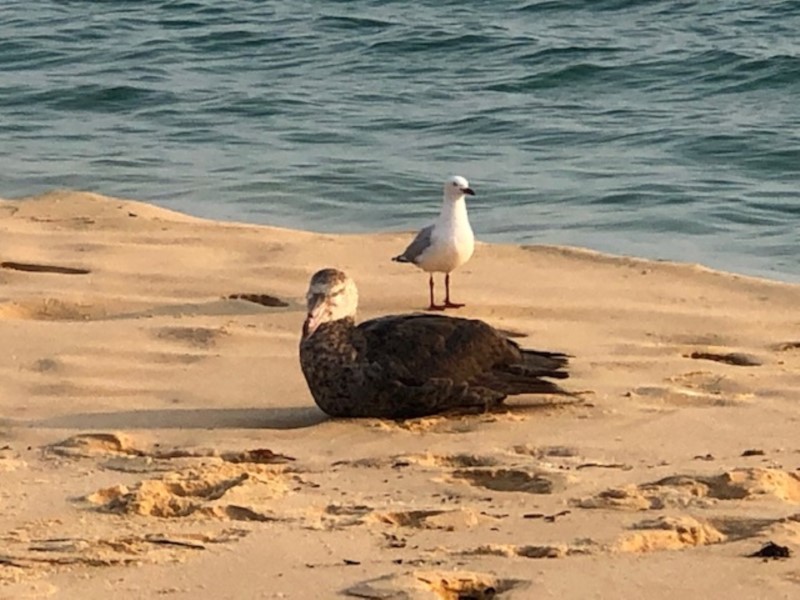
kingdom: Animalia
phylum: Chordata
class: Aves
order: Procellariiformes
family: Procellariidae
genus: Macronectes
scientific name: Macronectes halli
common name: Northern giant petrel
